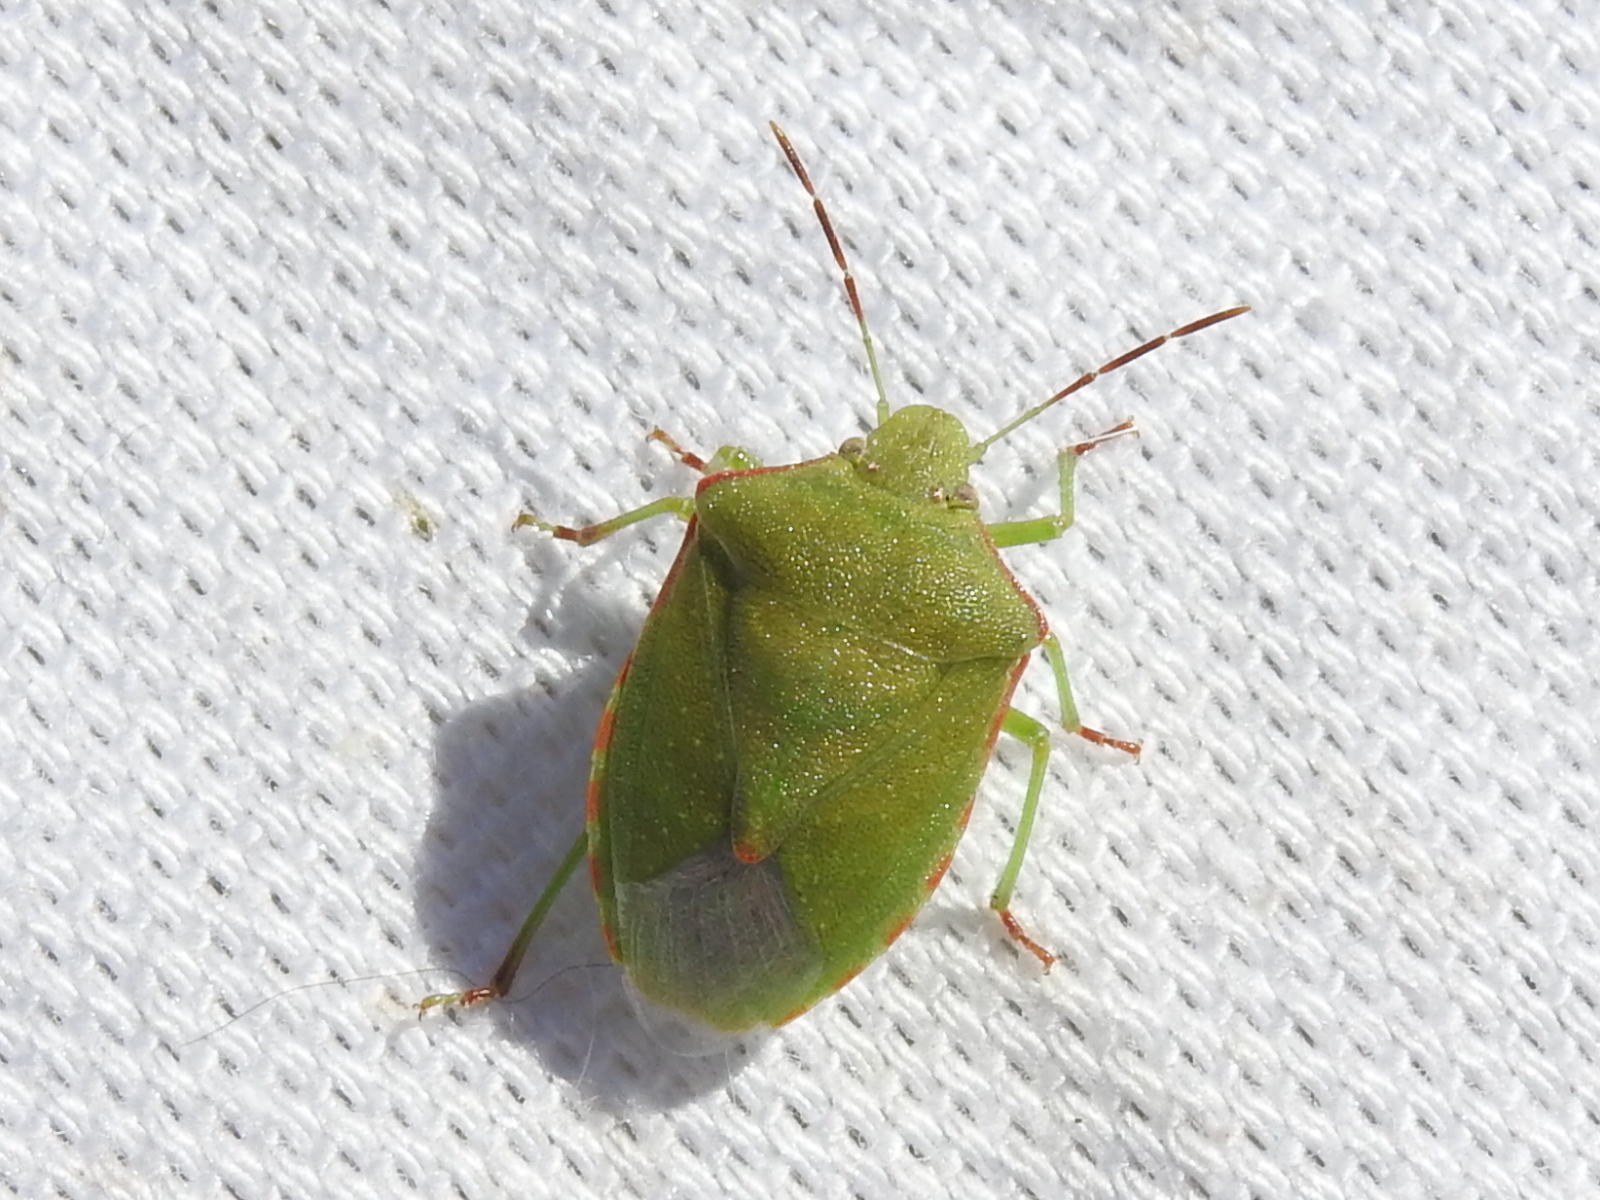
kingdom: Animalia
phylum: Arthropoda
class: Insecta
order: Hemiptera
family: Pentatomidae
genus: Thyanta
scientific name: Thyanta custator
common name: Stink bug
